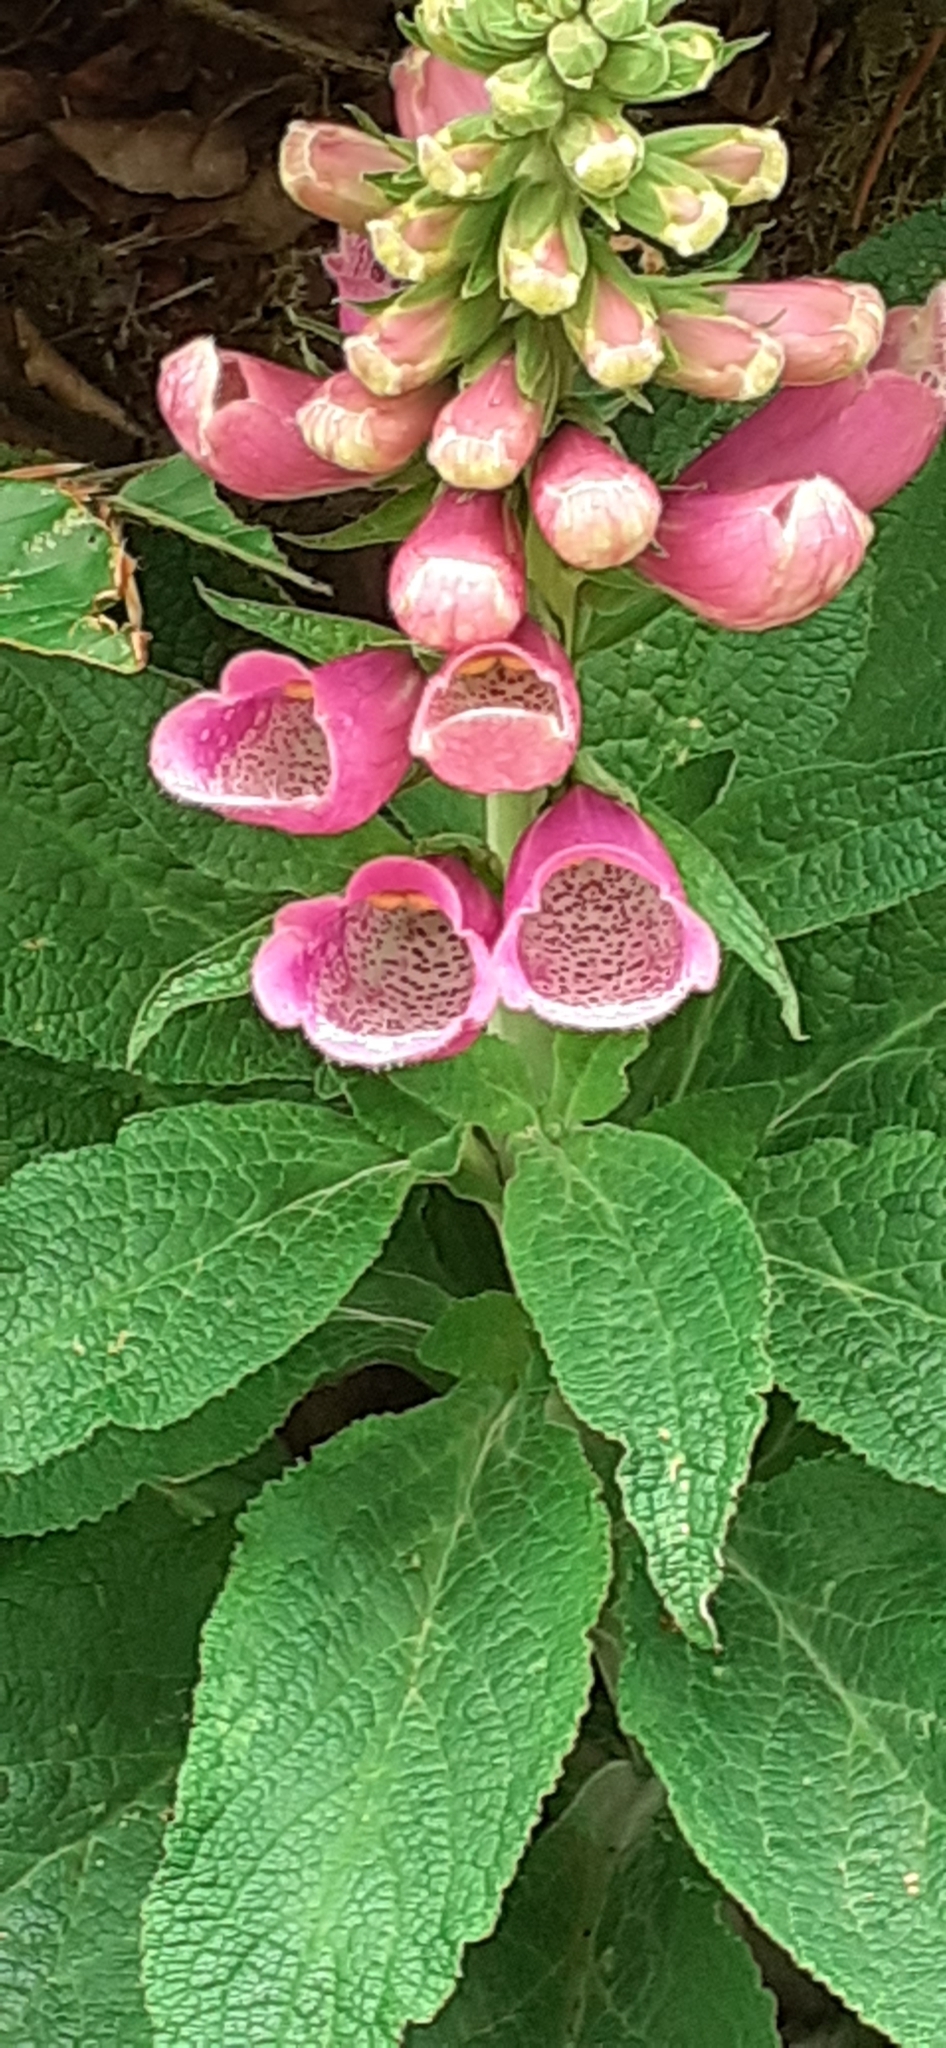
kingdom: Plantae
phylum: Tracheophyta
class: Magnoliopsida
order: Lamiales
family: Plantaginaceae
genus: Digitalis
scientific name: Digitalis purpurea
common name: Foxglove
